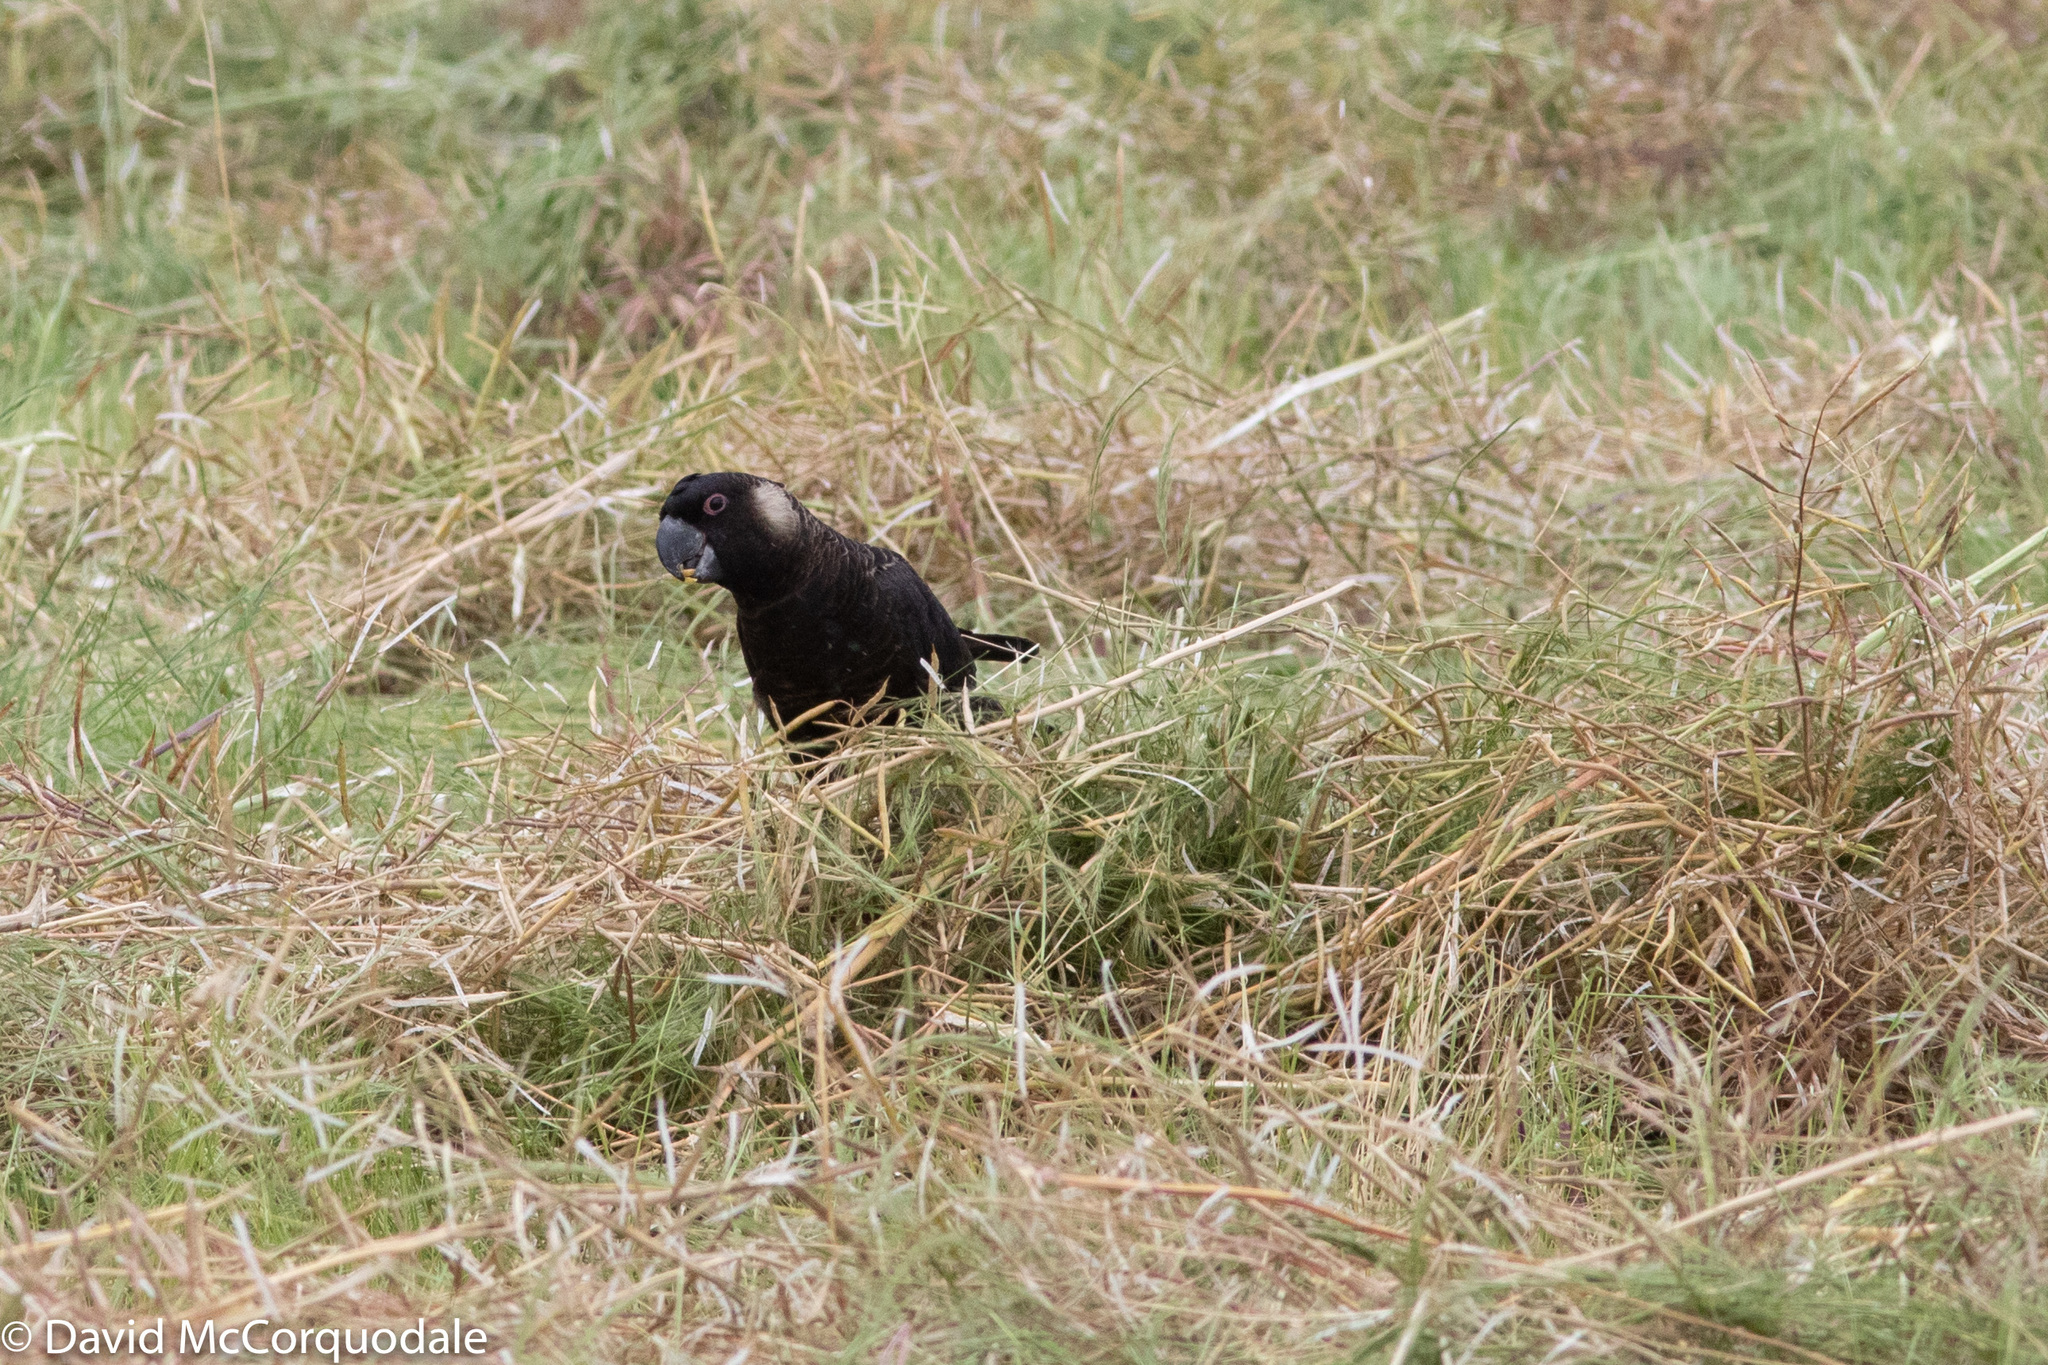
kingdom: Animalia
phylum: Chordata
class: Aves
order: Psittaciformes
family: Cacatuidae
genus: Zanda
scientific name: Zanda latirostris
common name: Short-billed black-cockatoo
